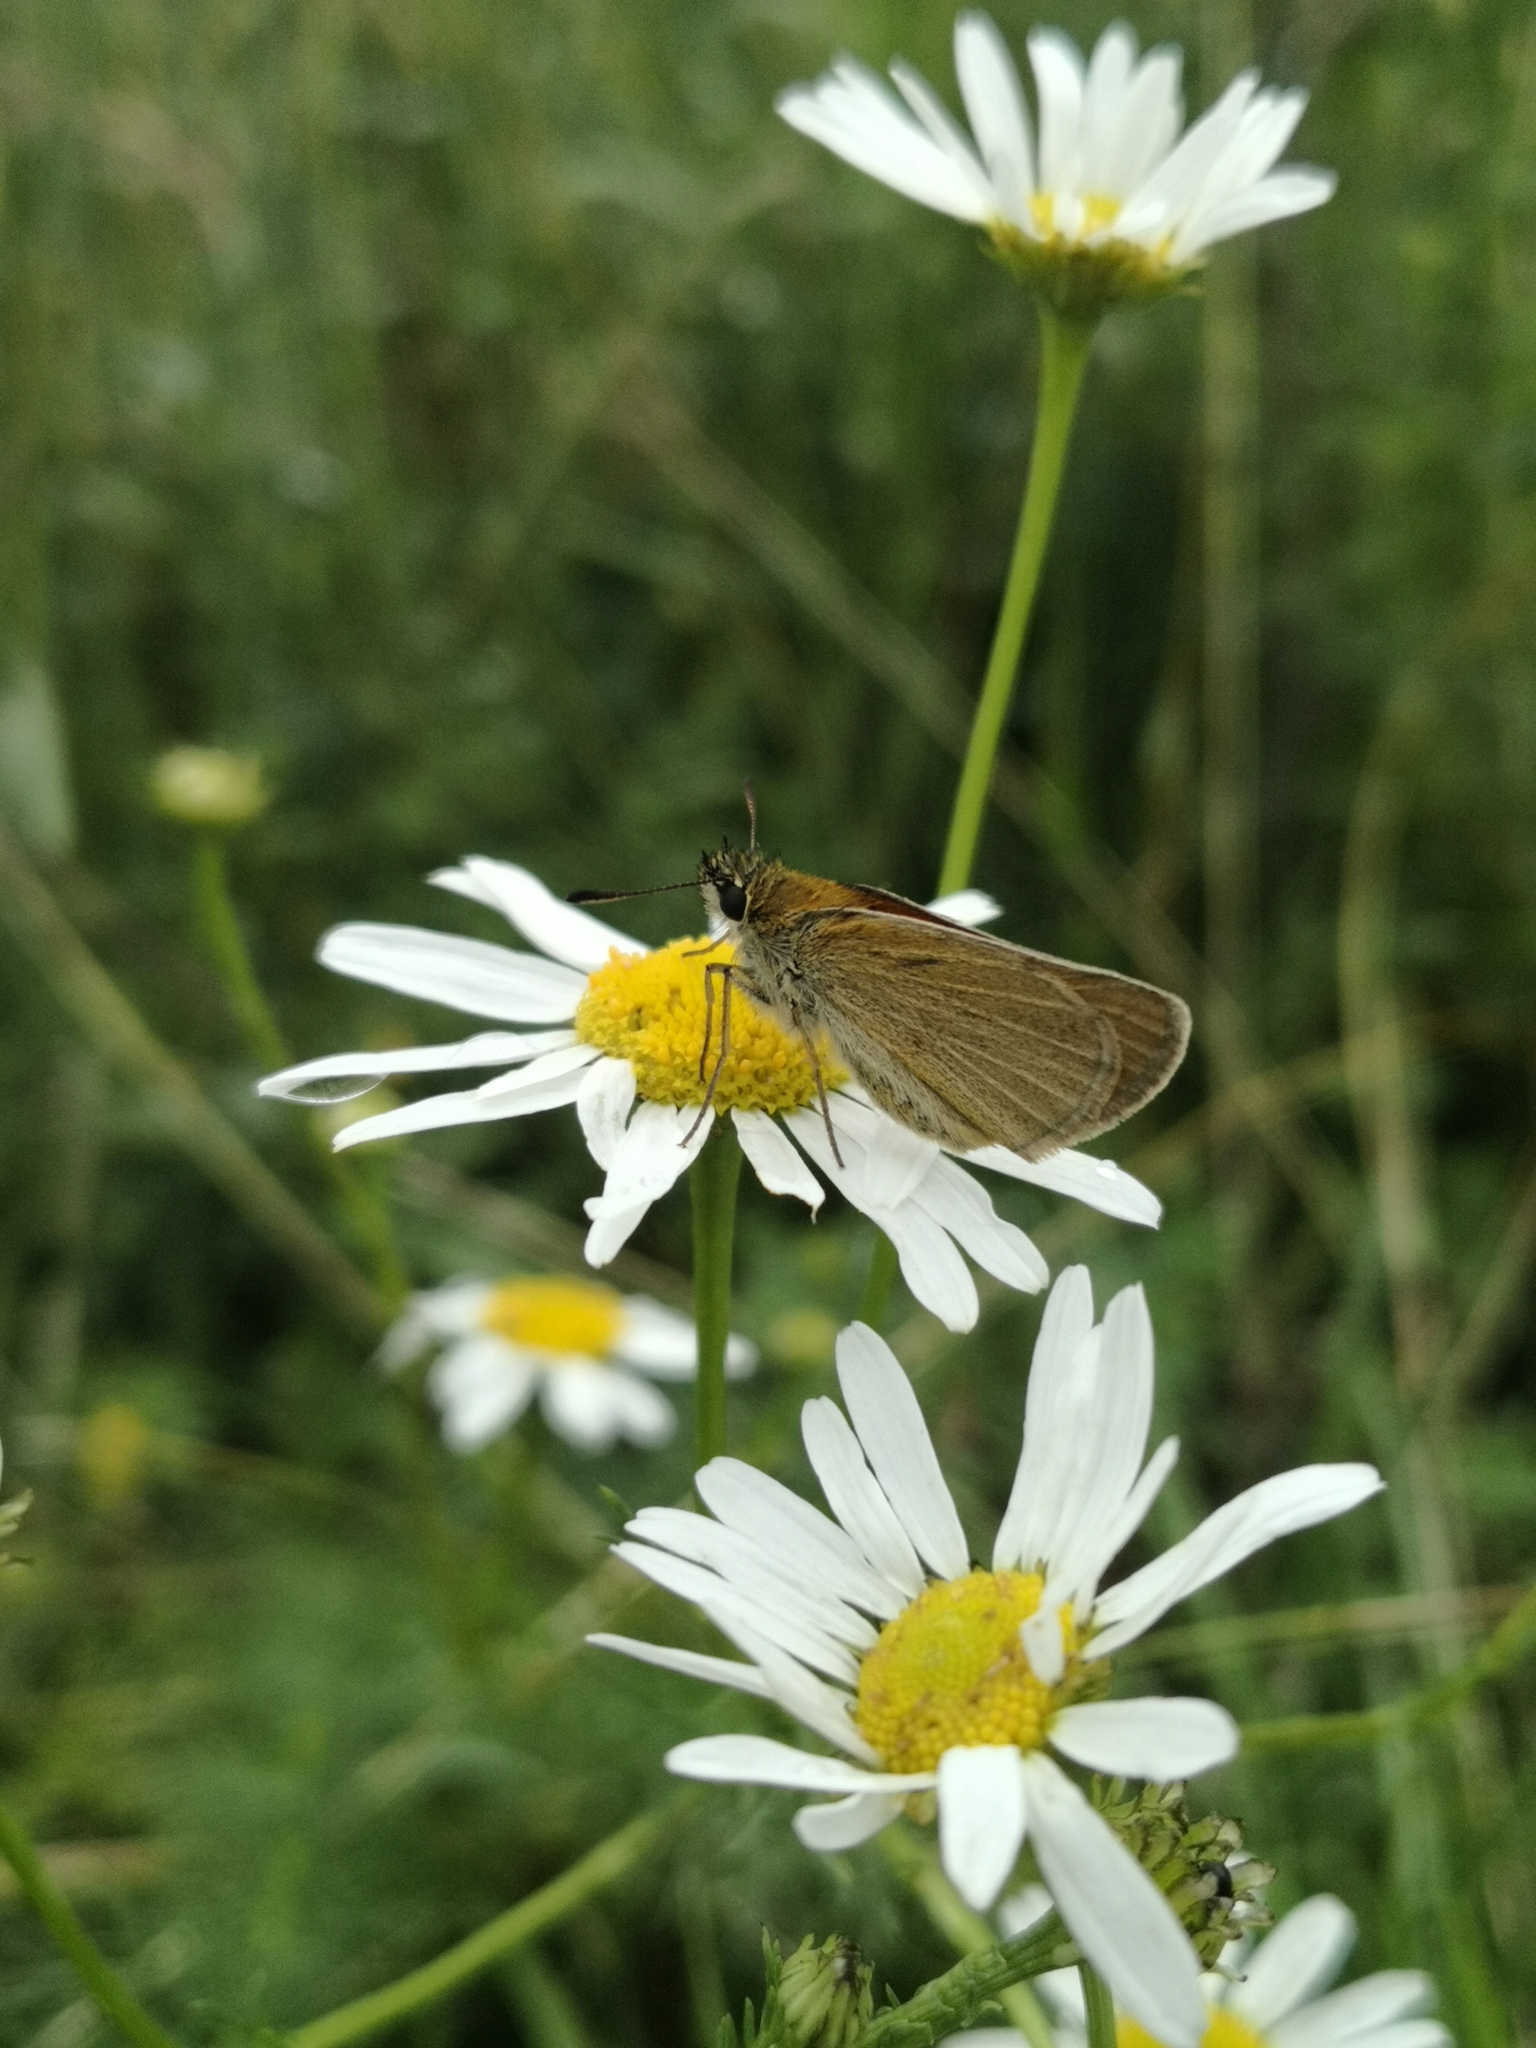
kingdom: Animalia
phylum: Arthropoda
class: Insecta
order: Lepidoptera
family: Hesperiidae
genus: Thymelicus
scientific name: Thymelicus lineola
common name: Essex skipper
